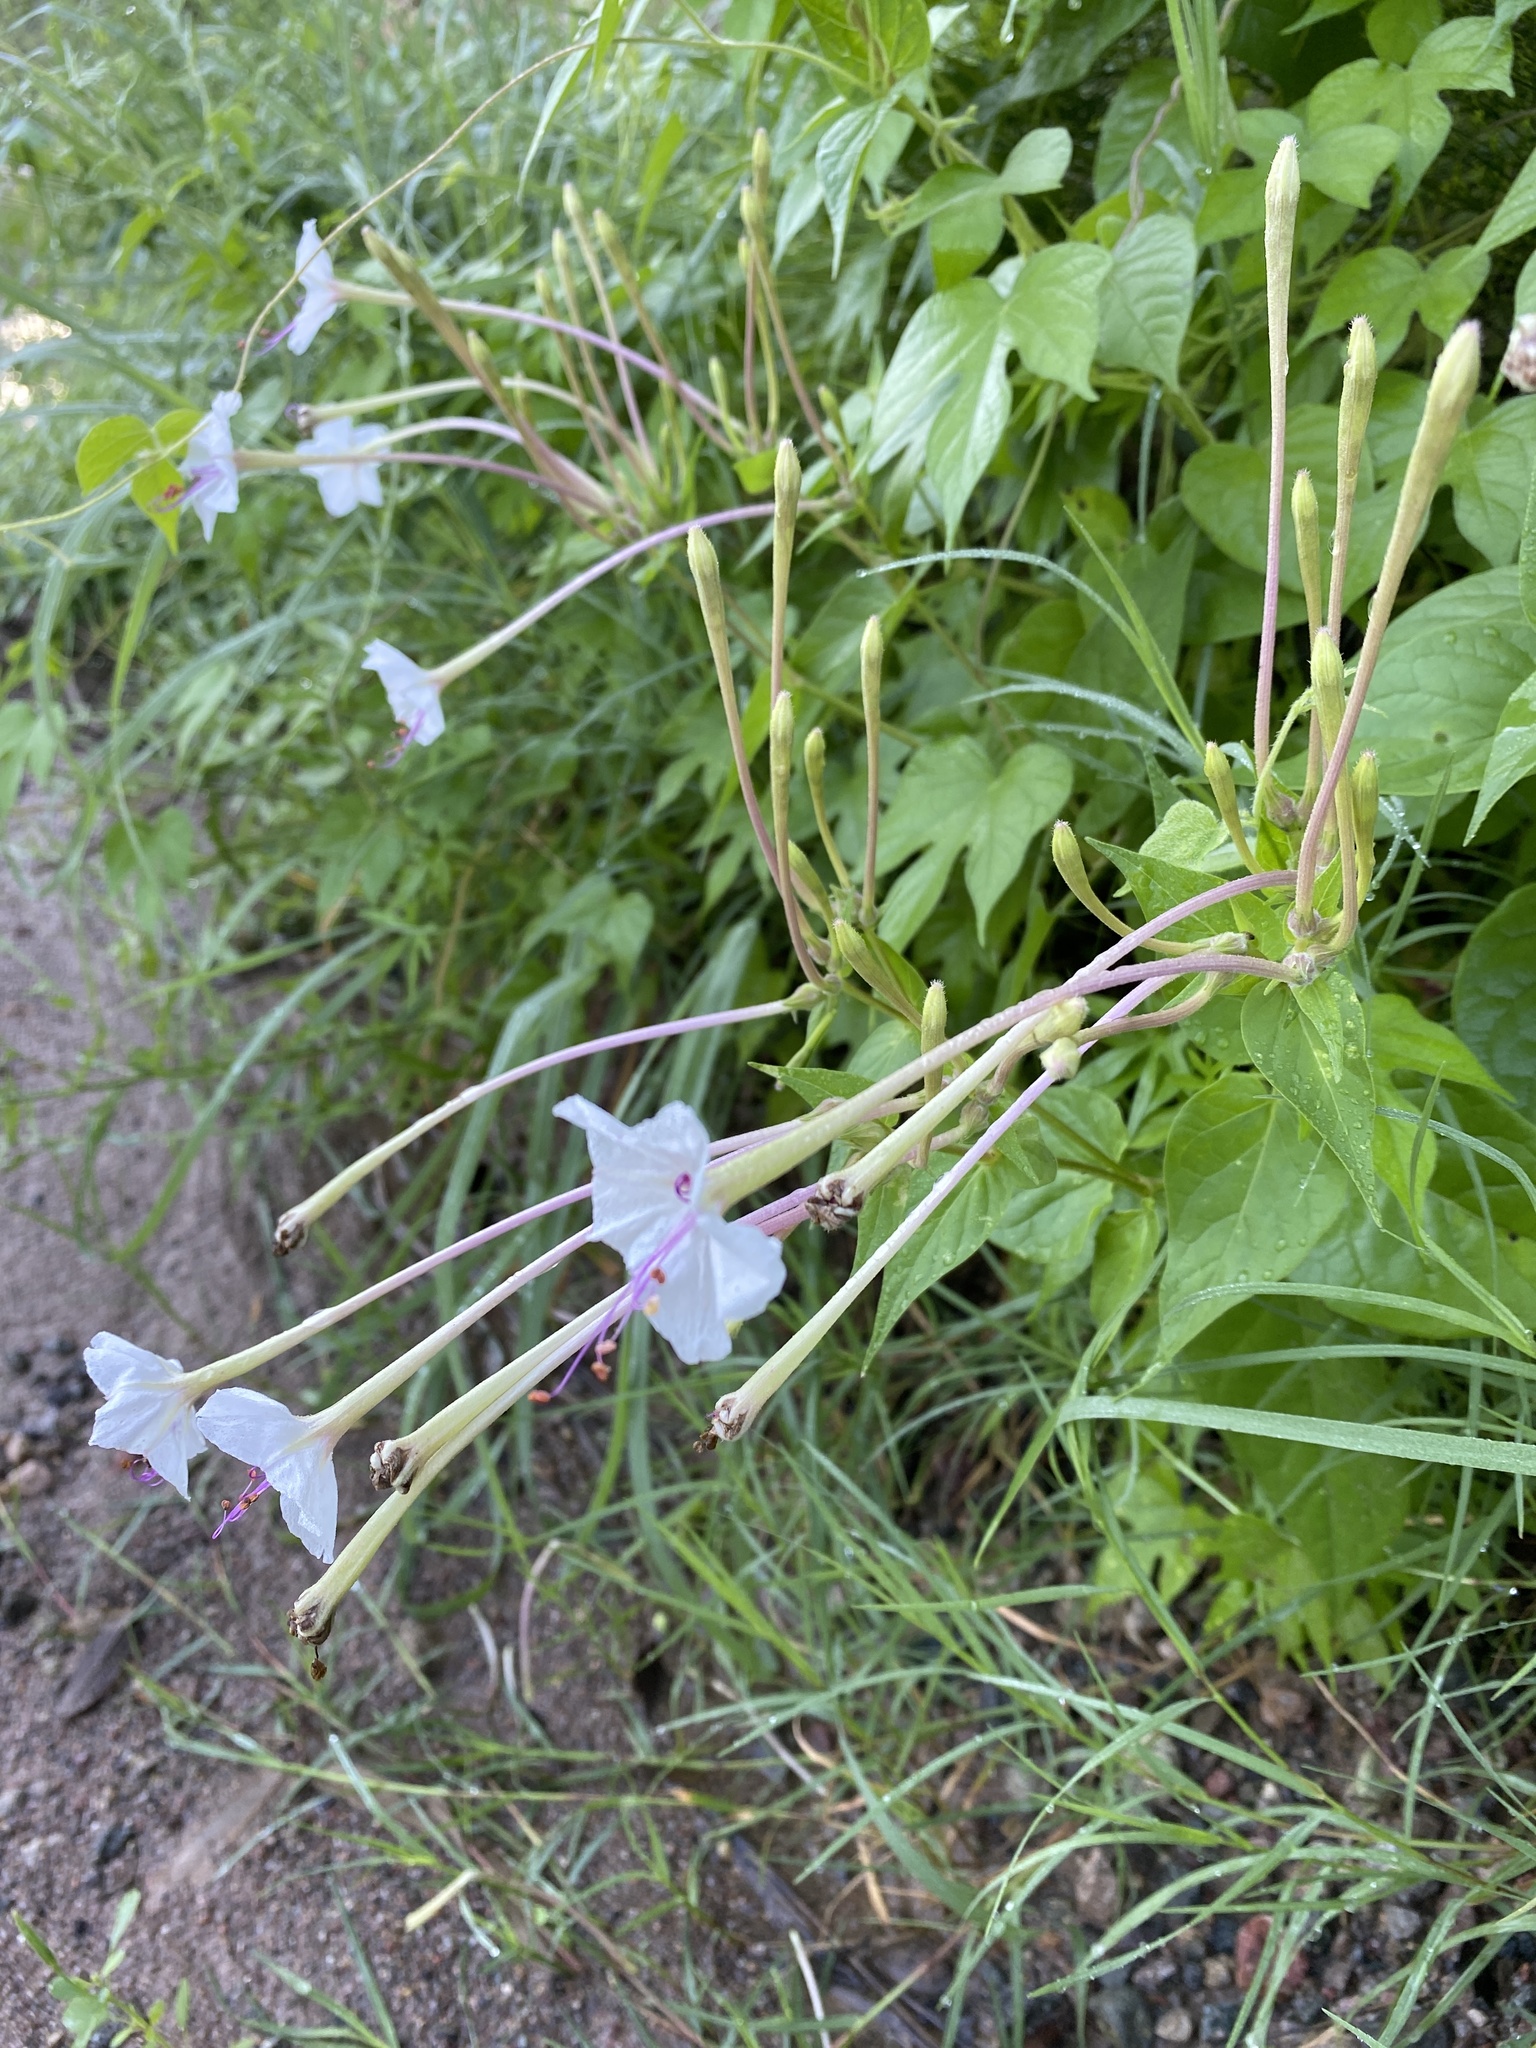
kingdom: Plantae
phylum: Tracheophyta
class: Magnoliopsida
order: Caryophyllales
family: Nyctaginaceae
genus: Mirabilis
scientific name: Mirabilis longiflora
